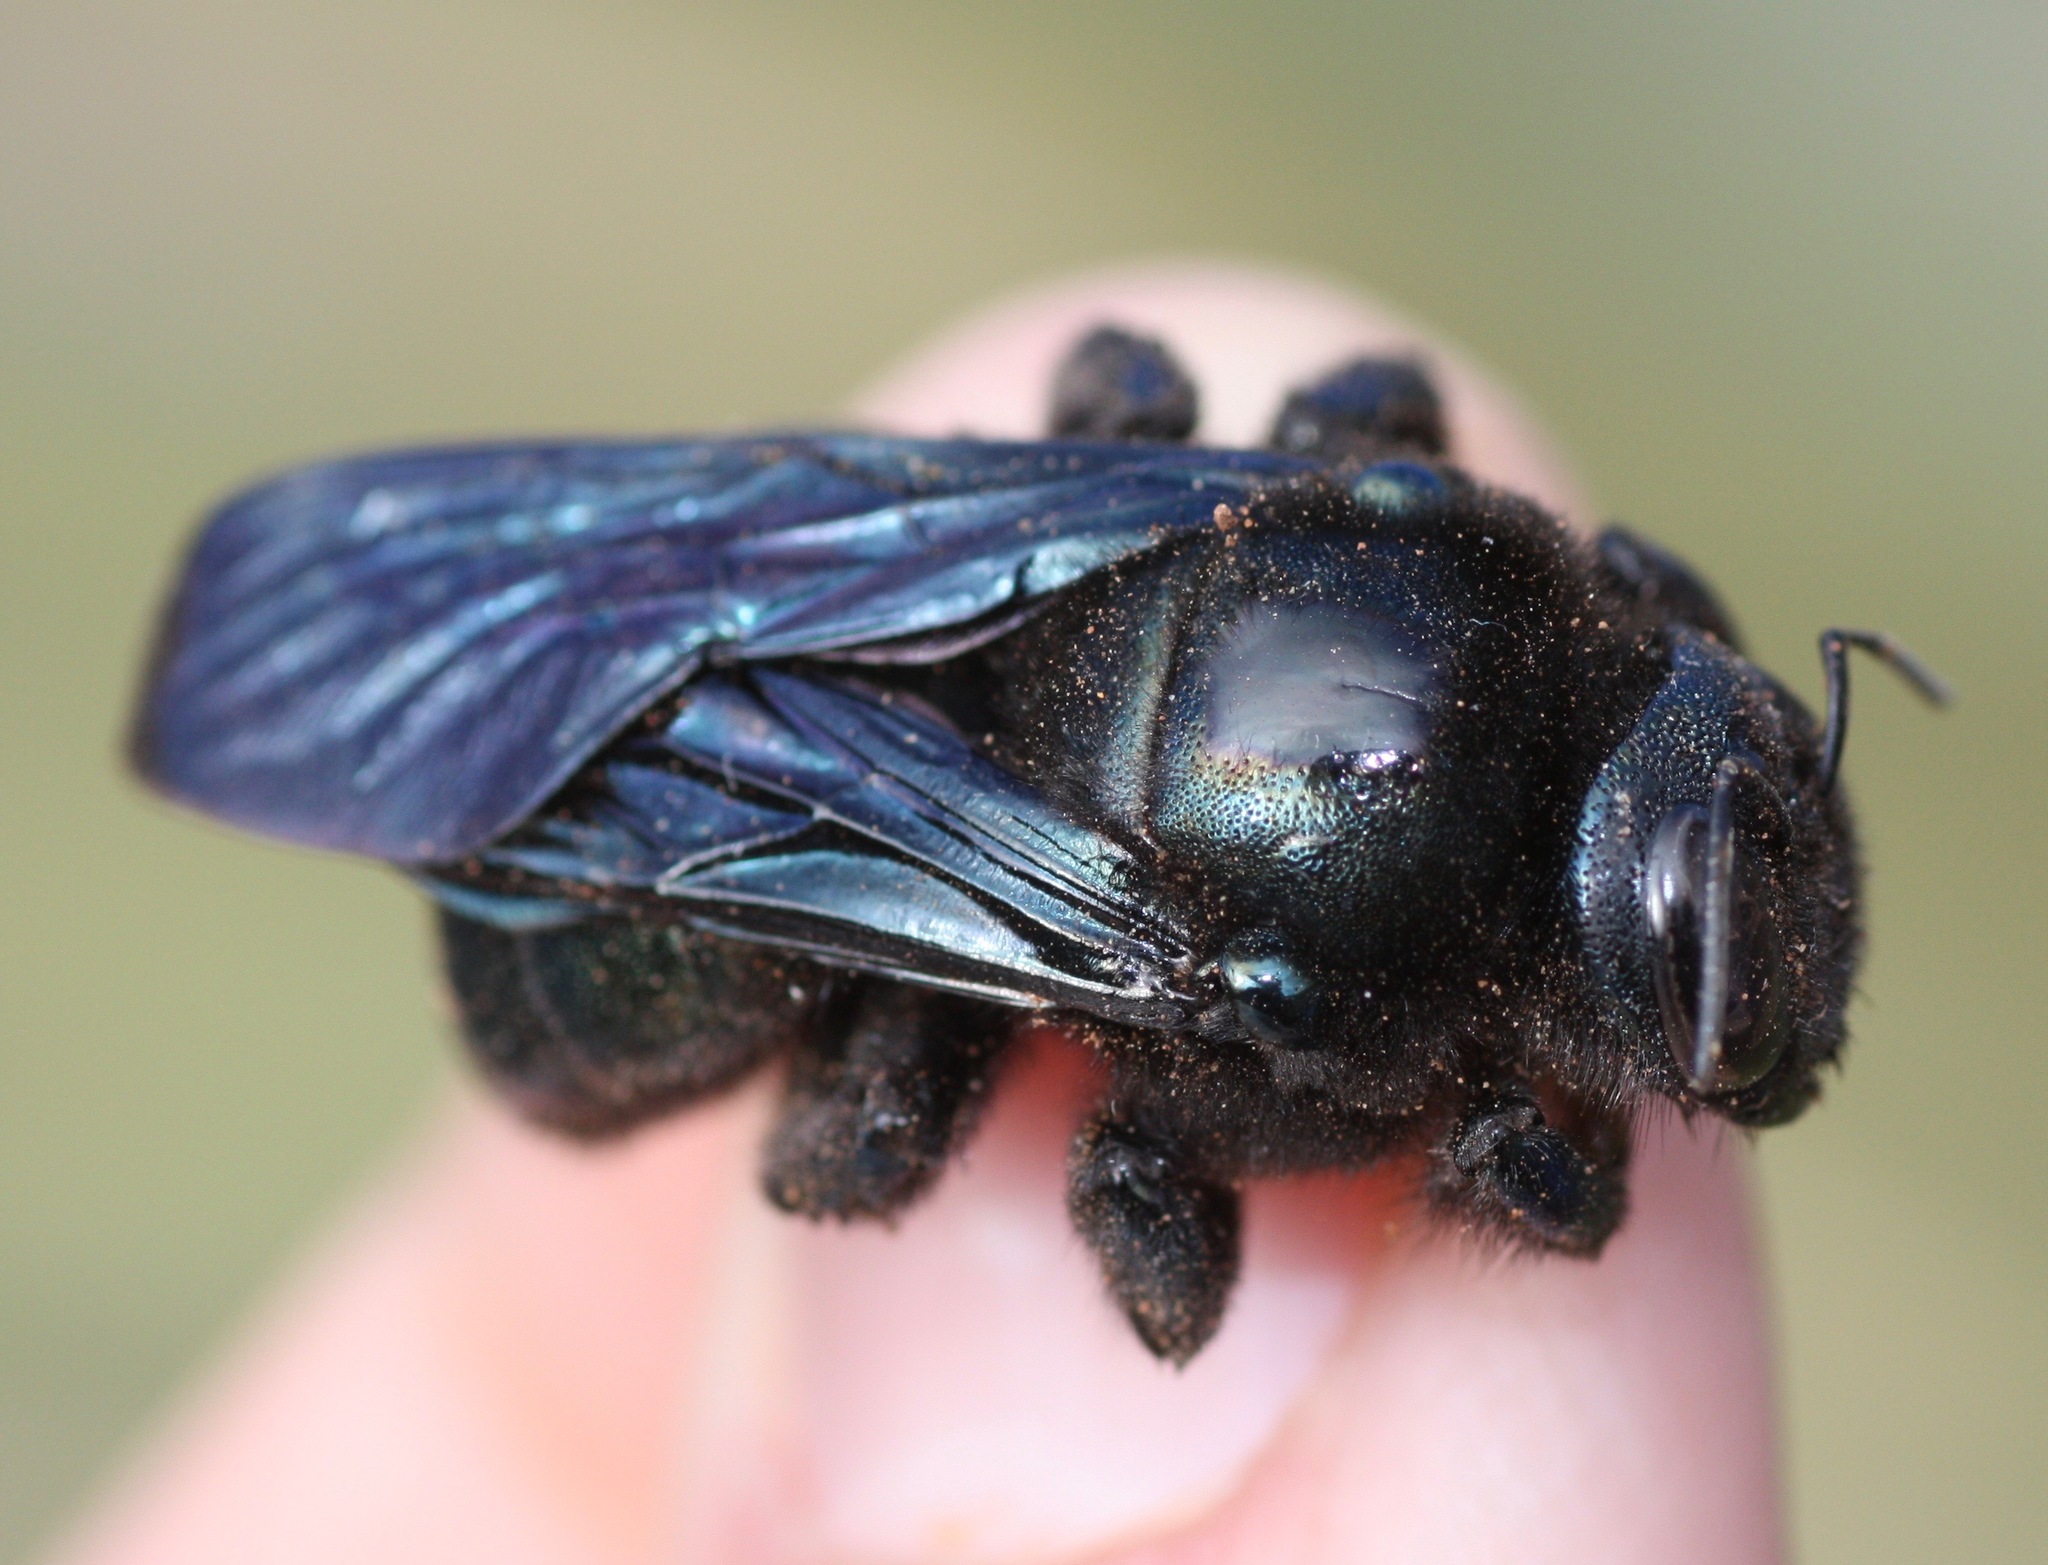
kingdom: Animalia
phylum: Arthropoda
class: Insecta
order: Hymenoptera
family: Apidae
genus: Xylocopa
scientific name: Xylocopa californica
